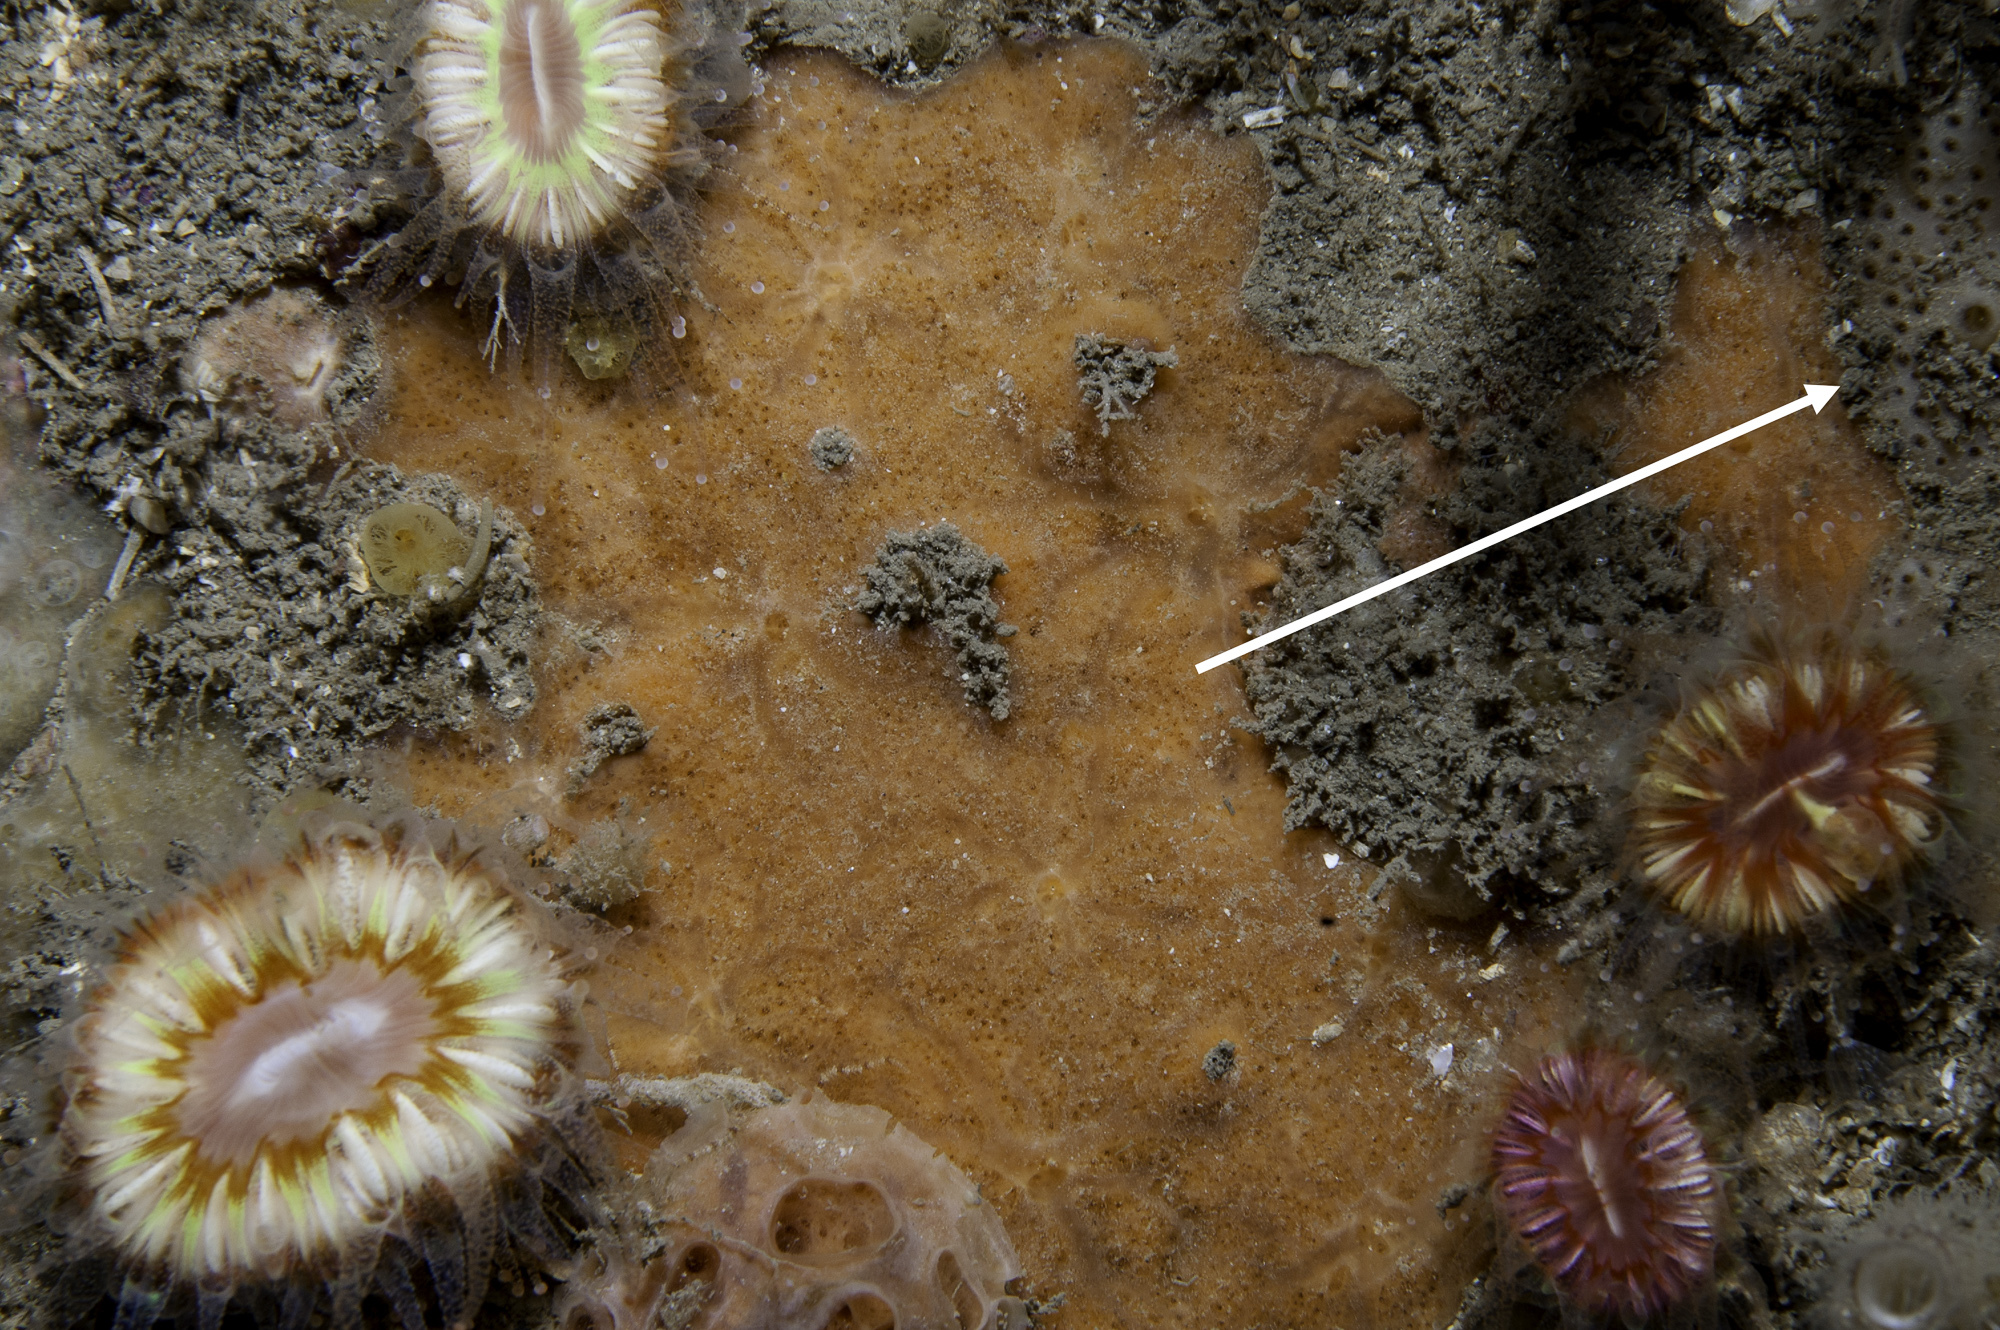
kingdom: Animalia
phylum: Porifera
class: Demospongiae
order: Poecilosclerida
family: Crellidae
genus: Crella
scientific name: Crella plana
